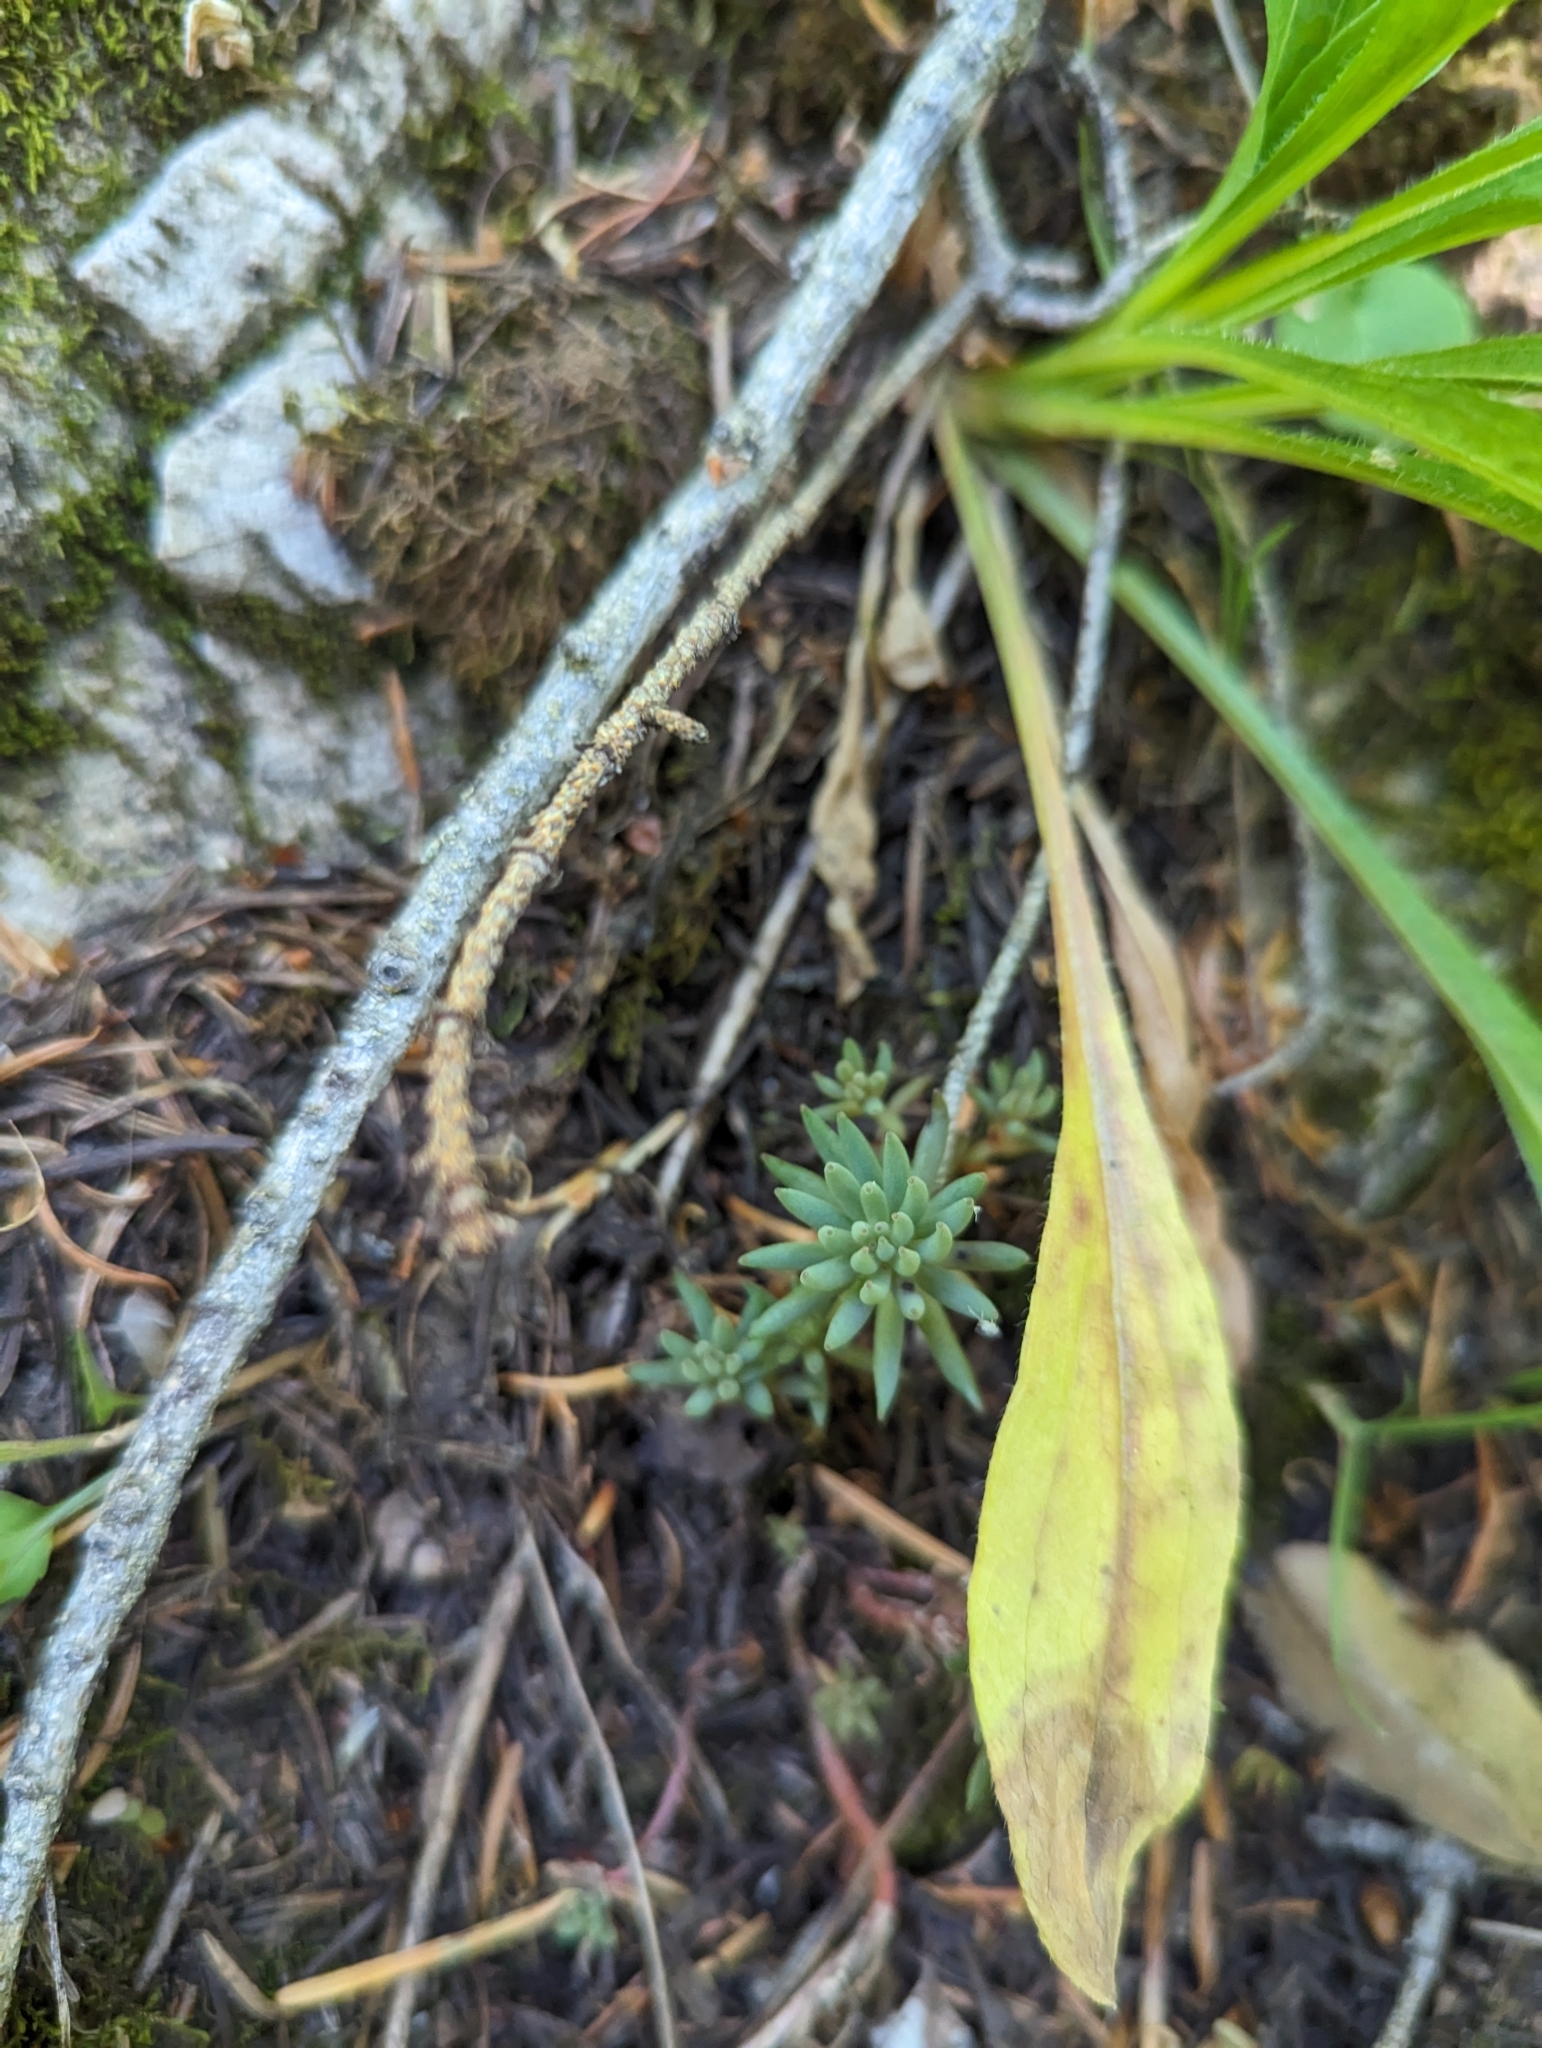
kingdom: Plantae
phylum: Tracheophyta
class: Magnoliopsida
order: Saxifragales
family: Crassulaceae
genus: Sedum
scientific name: Sedum lanceolatum
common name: Common stonecrop
